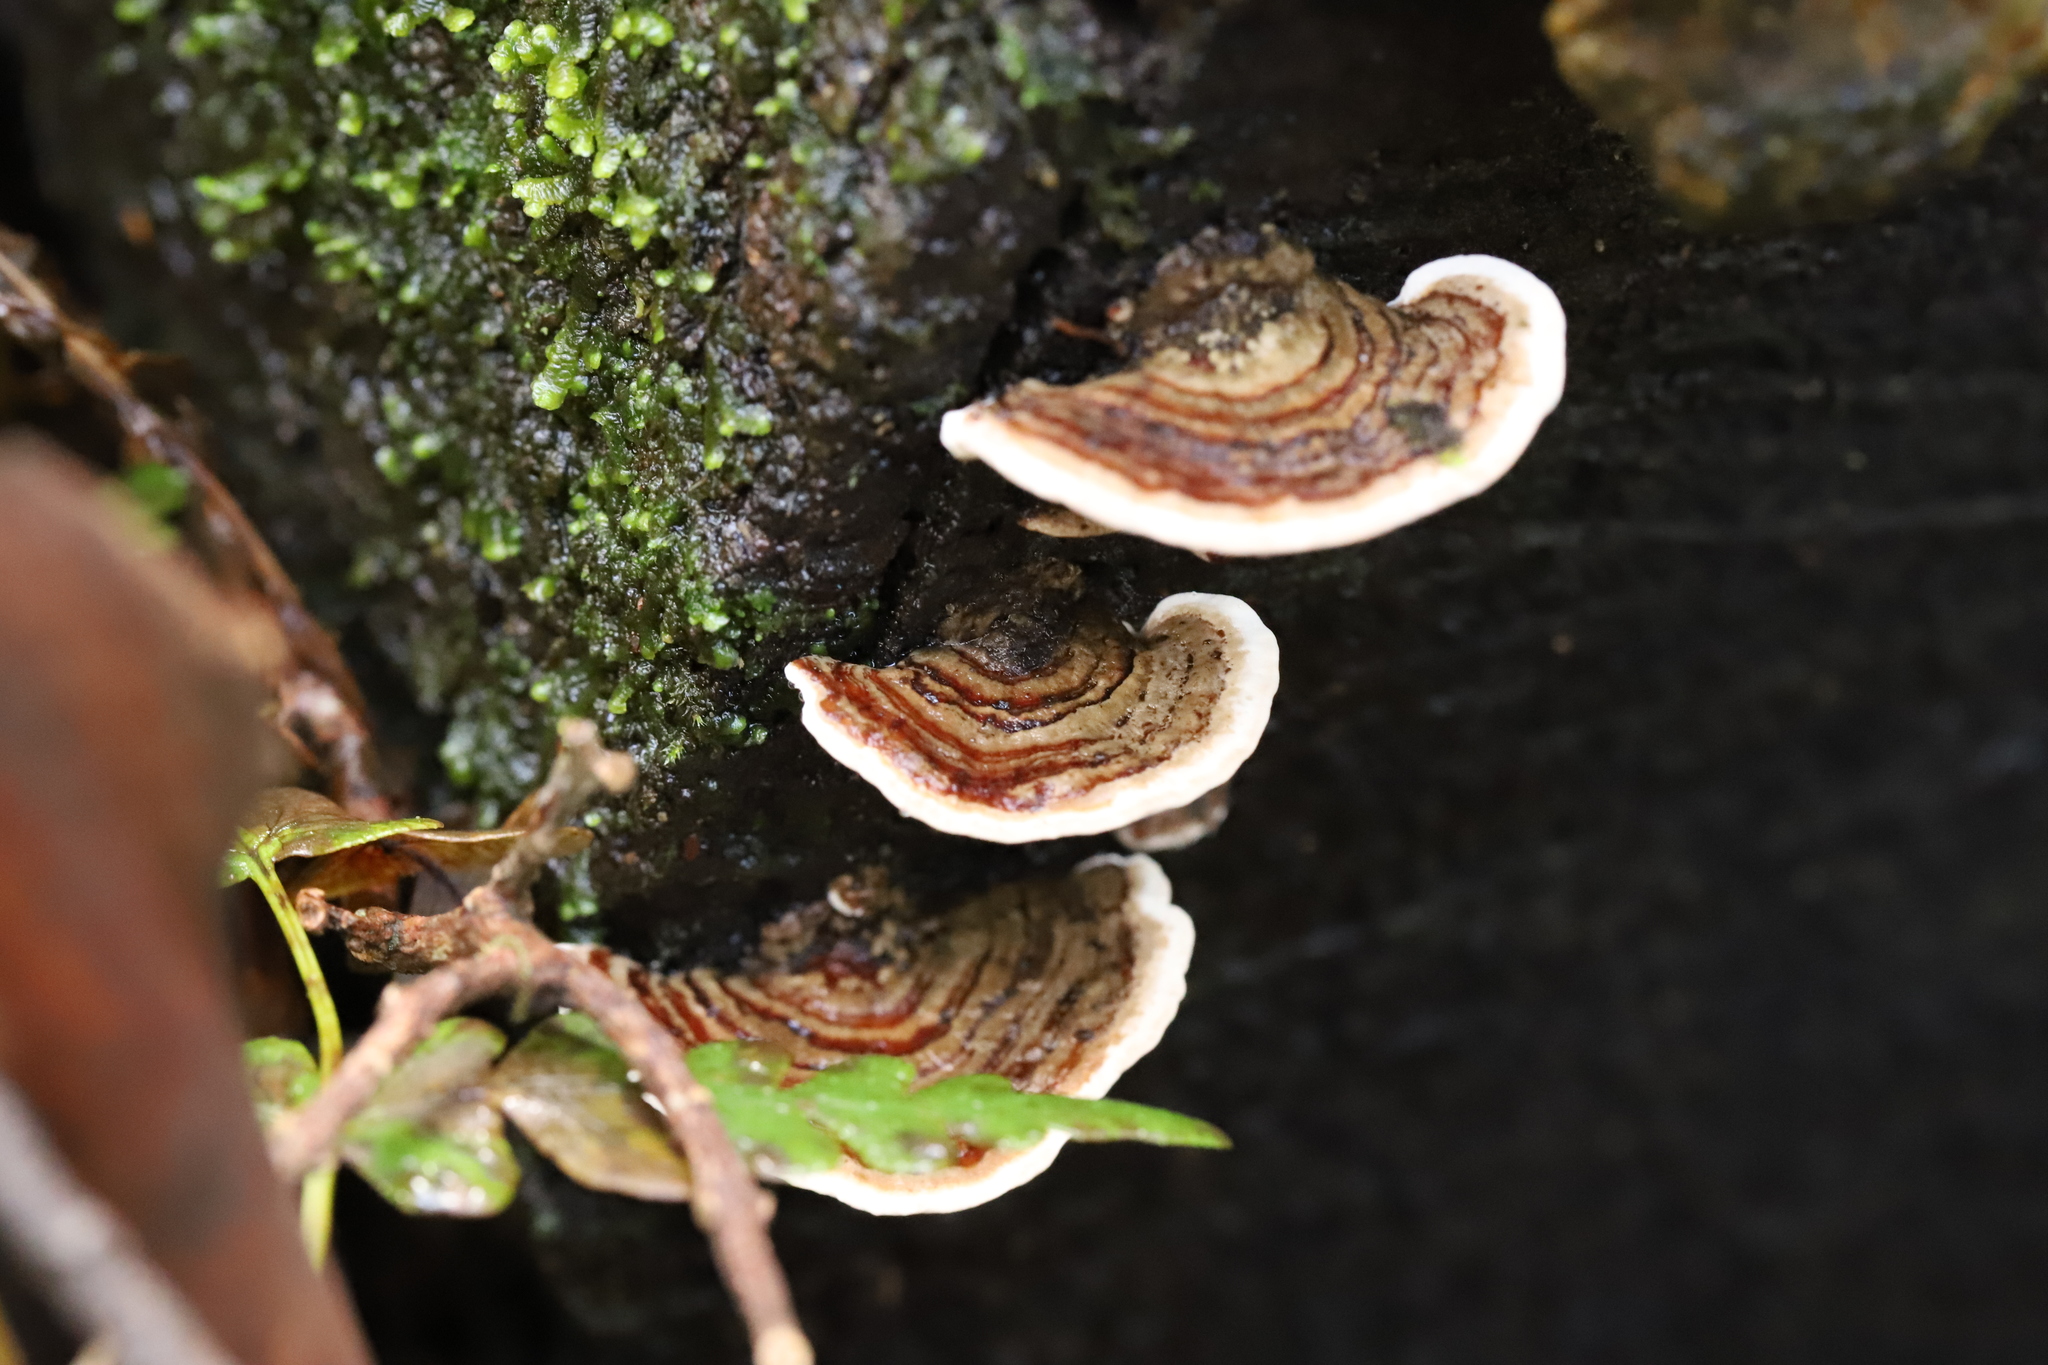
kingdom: Fungi
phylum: Basidiomycota
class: Agaricomycetes
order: Polyporales
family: Polyporaceae
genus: Trametes
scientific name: Trametes versicolor
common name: Turkeytail
